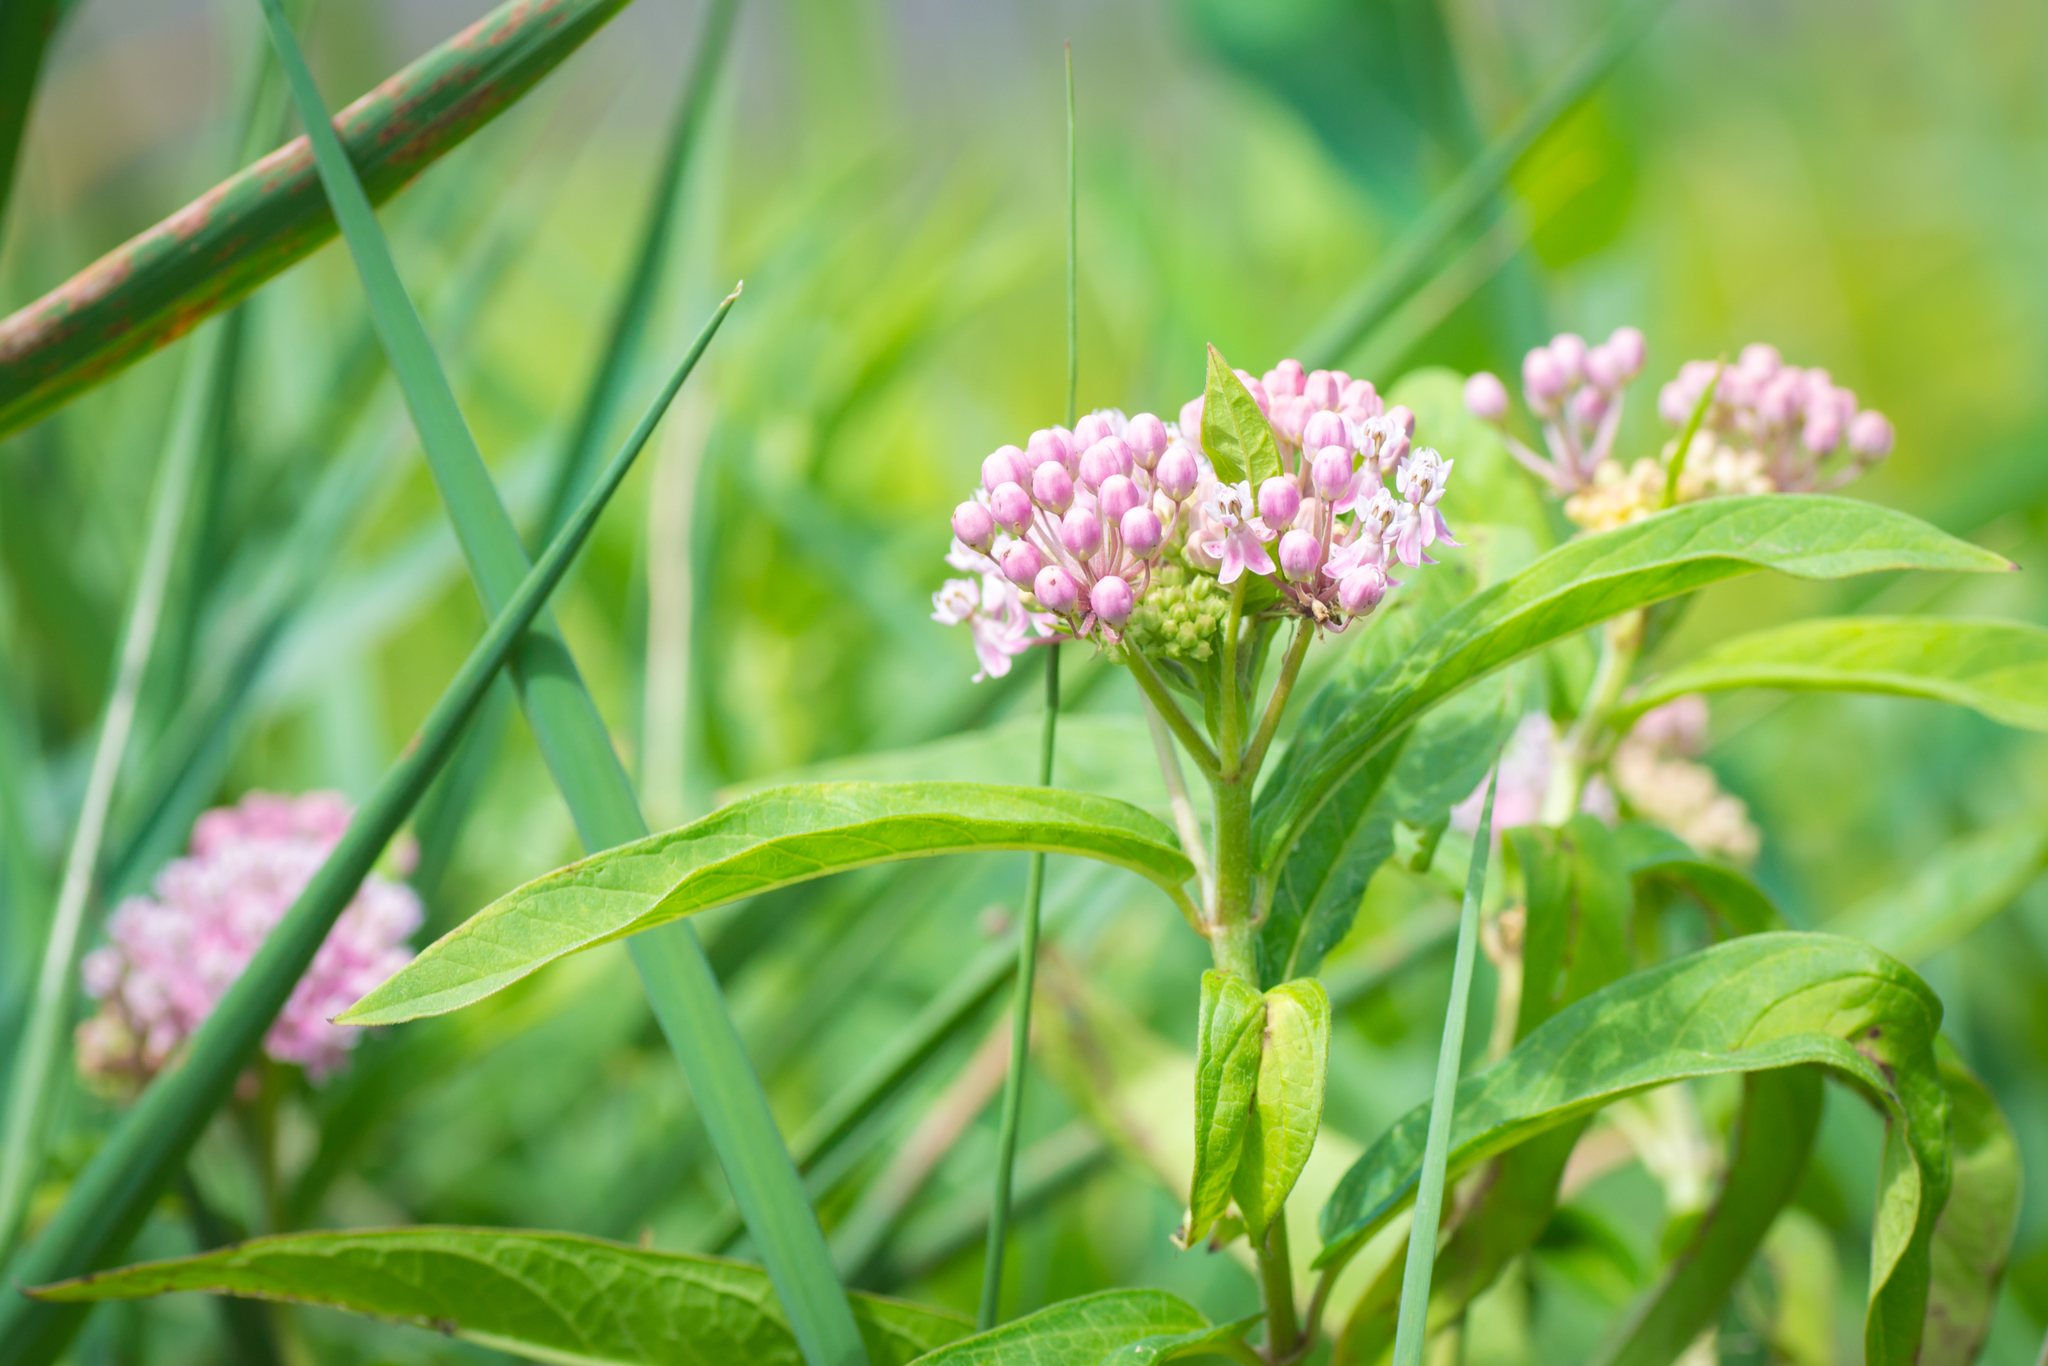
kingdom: Plantae
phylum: Tracheophyta
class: Magnoliopsida
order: Gentianales
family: Apocynaceae
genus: Asclepias
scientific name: Asclepias incarnata
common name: Swamp milkweed
